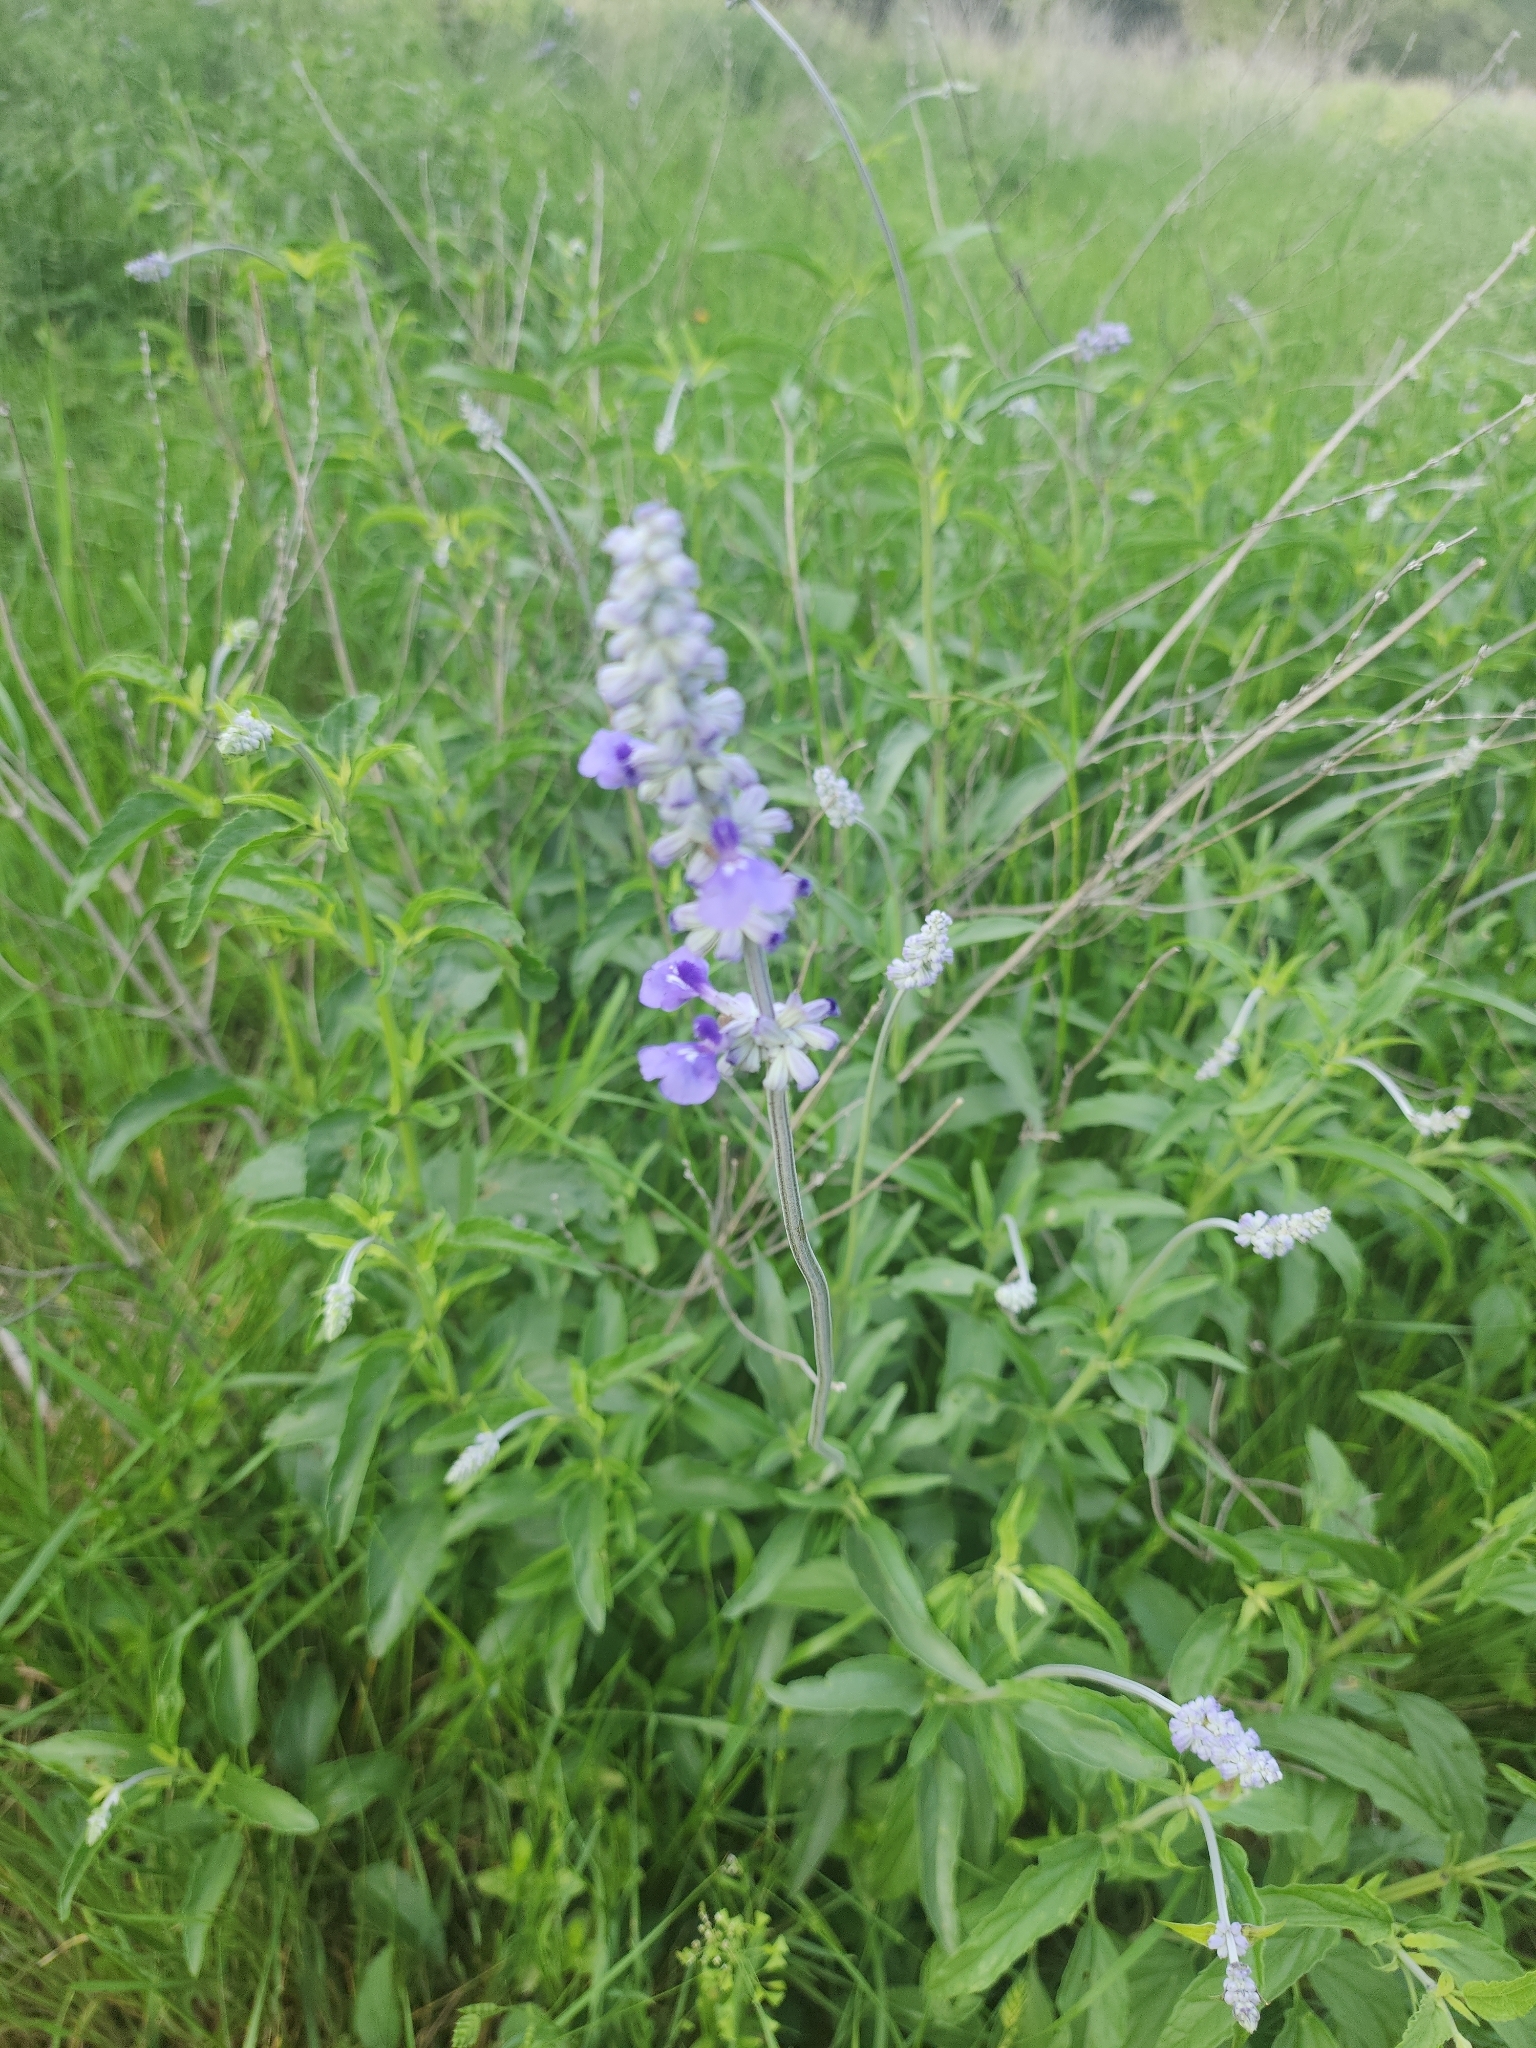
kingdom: Plantae
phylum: Tracheophyta
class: Magnoliopsida
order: Lamiales
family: Lamiaceae
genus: Salvia
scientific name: Salvia farinacea
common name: Mealy sage
